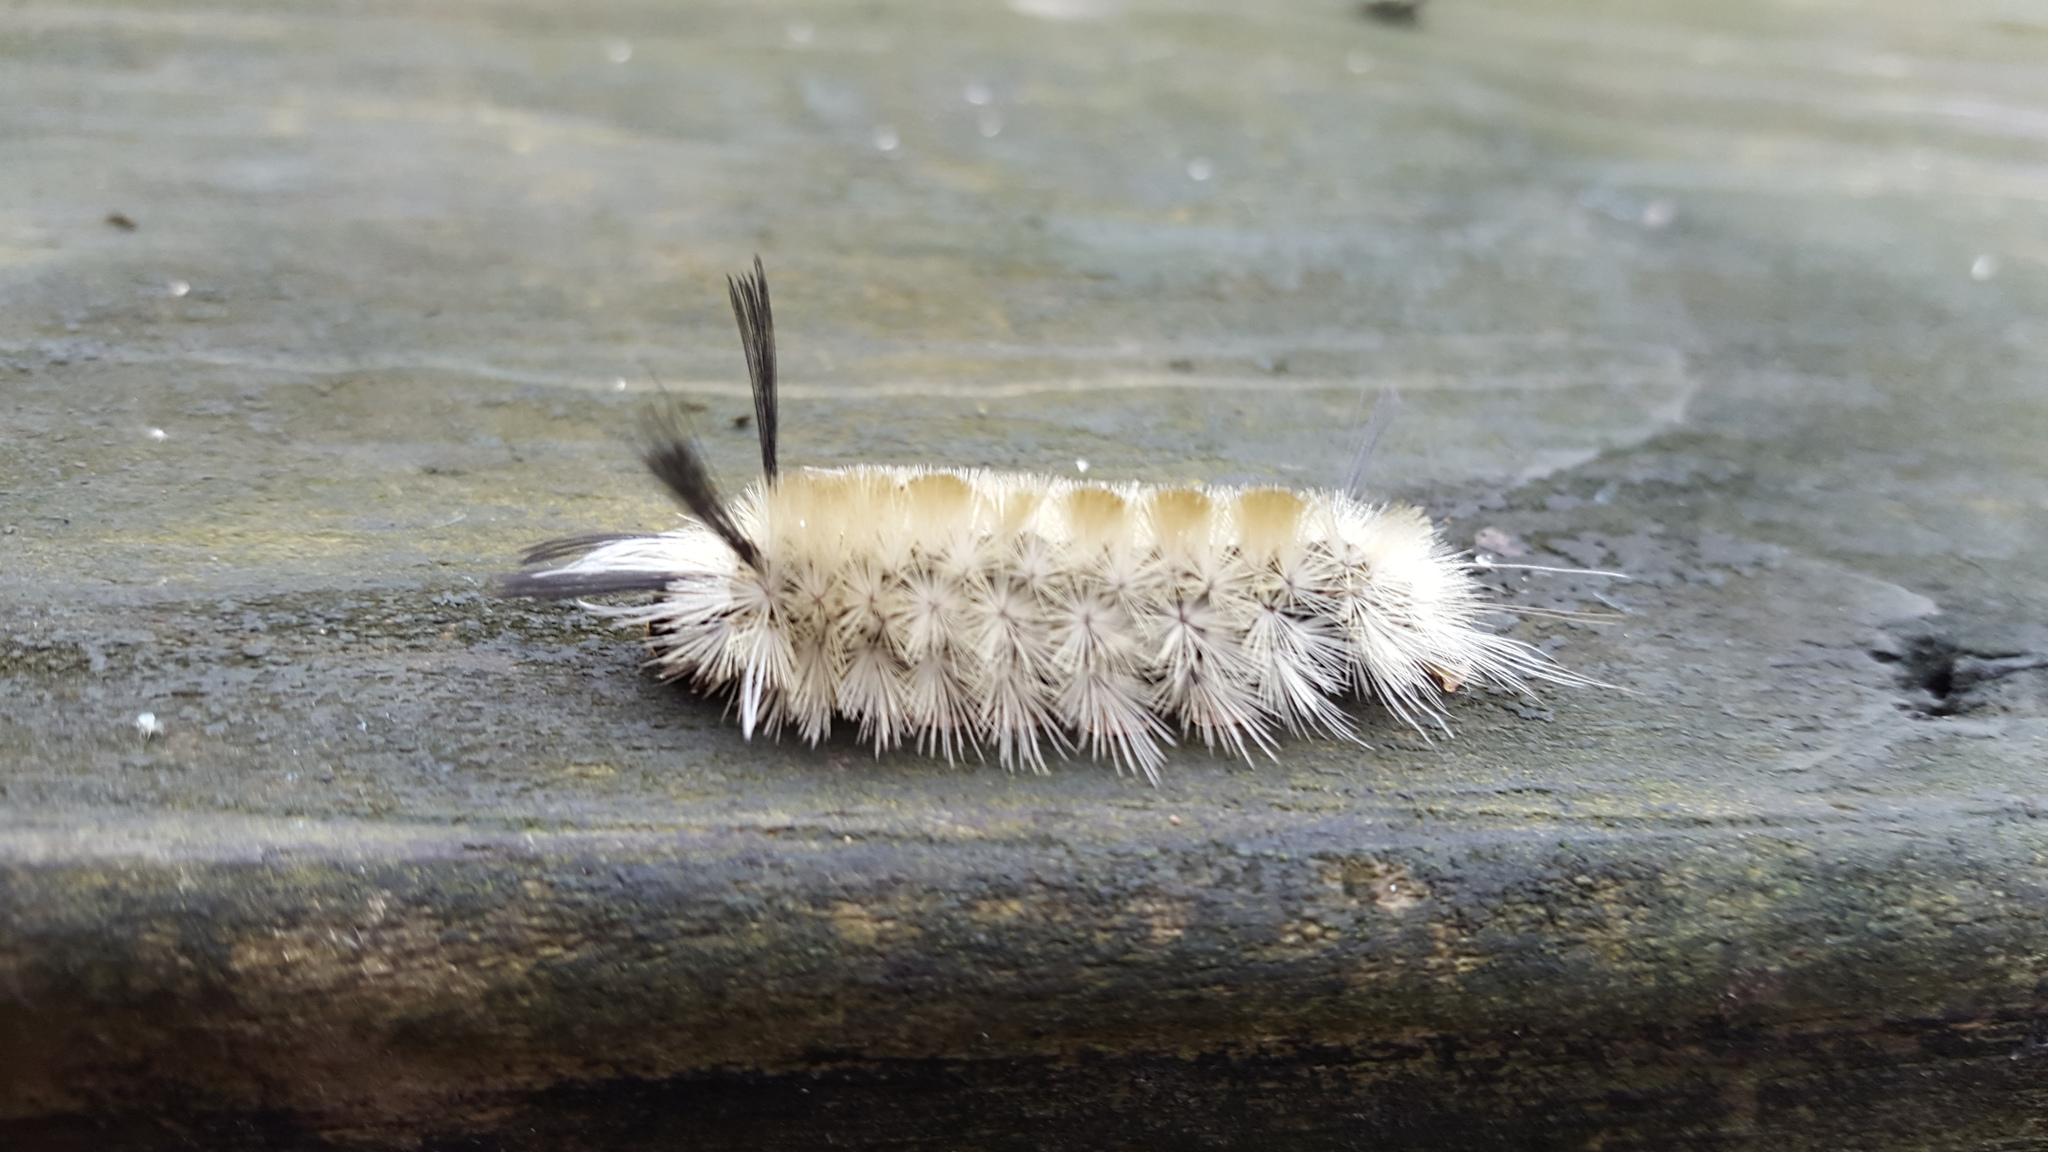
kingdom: Animalia
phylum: Arthropoda
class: Insecta
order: Lepidoptera
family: Erebidae
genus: Halysidota
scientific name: Halysidota tessellaris
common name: Banded tussock moth
